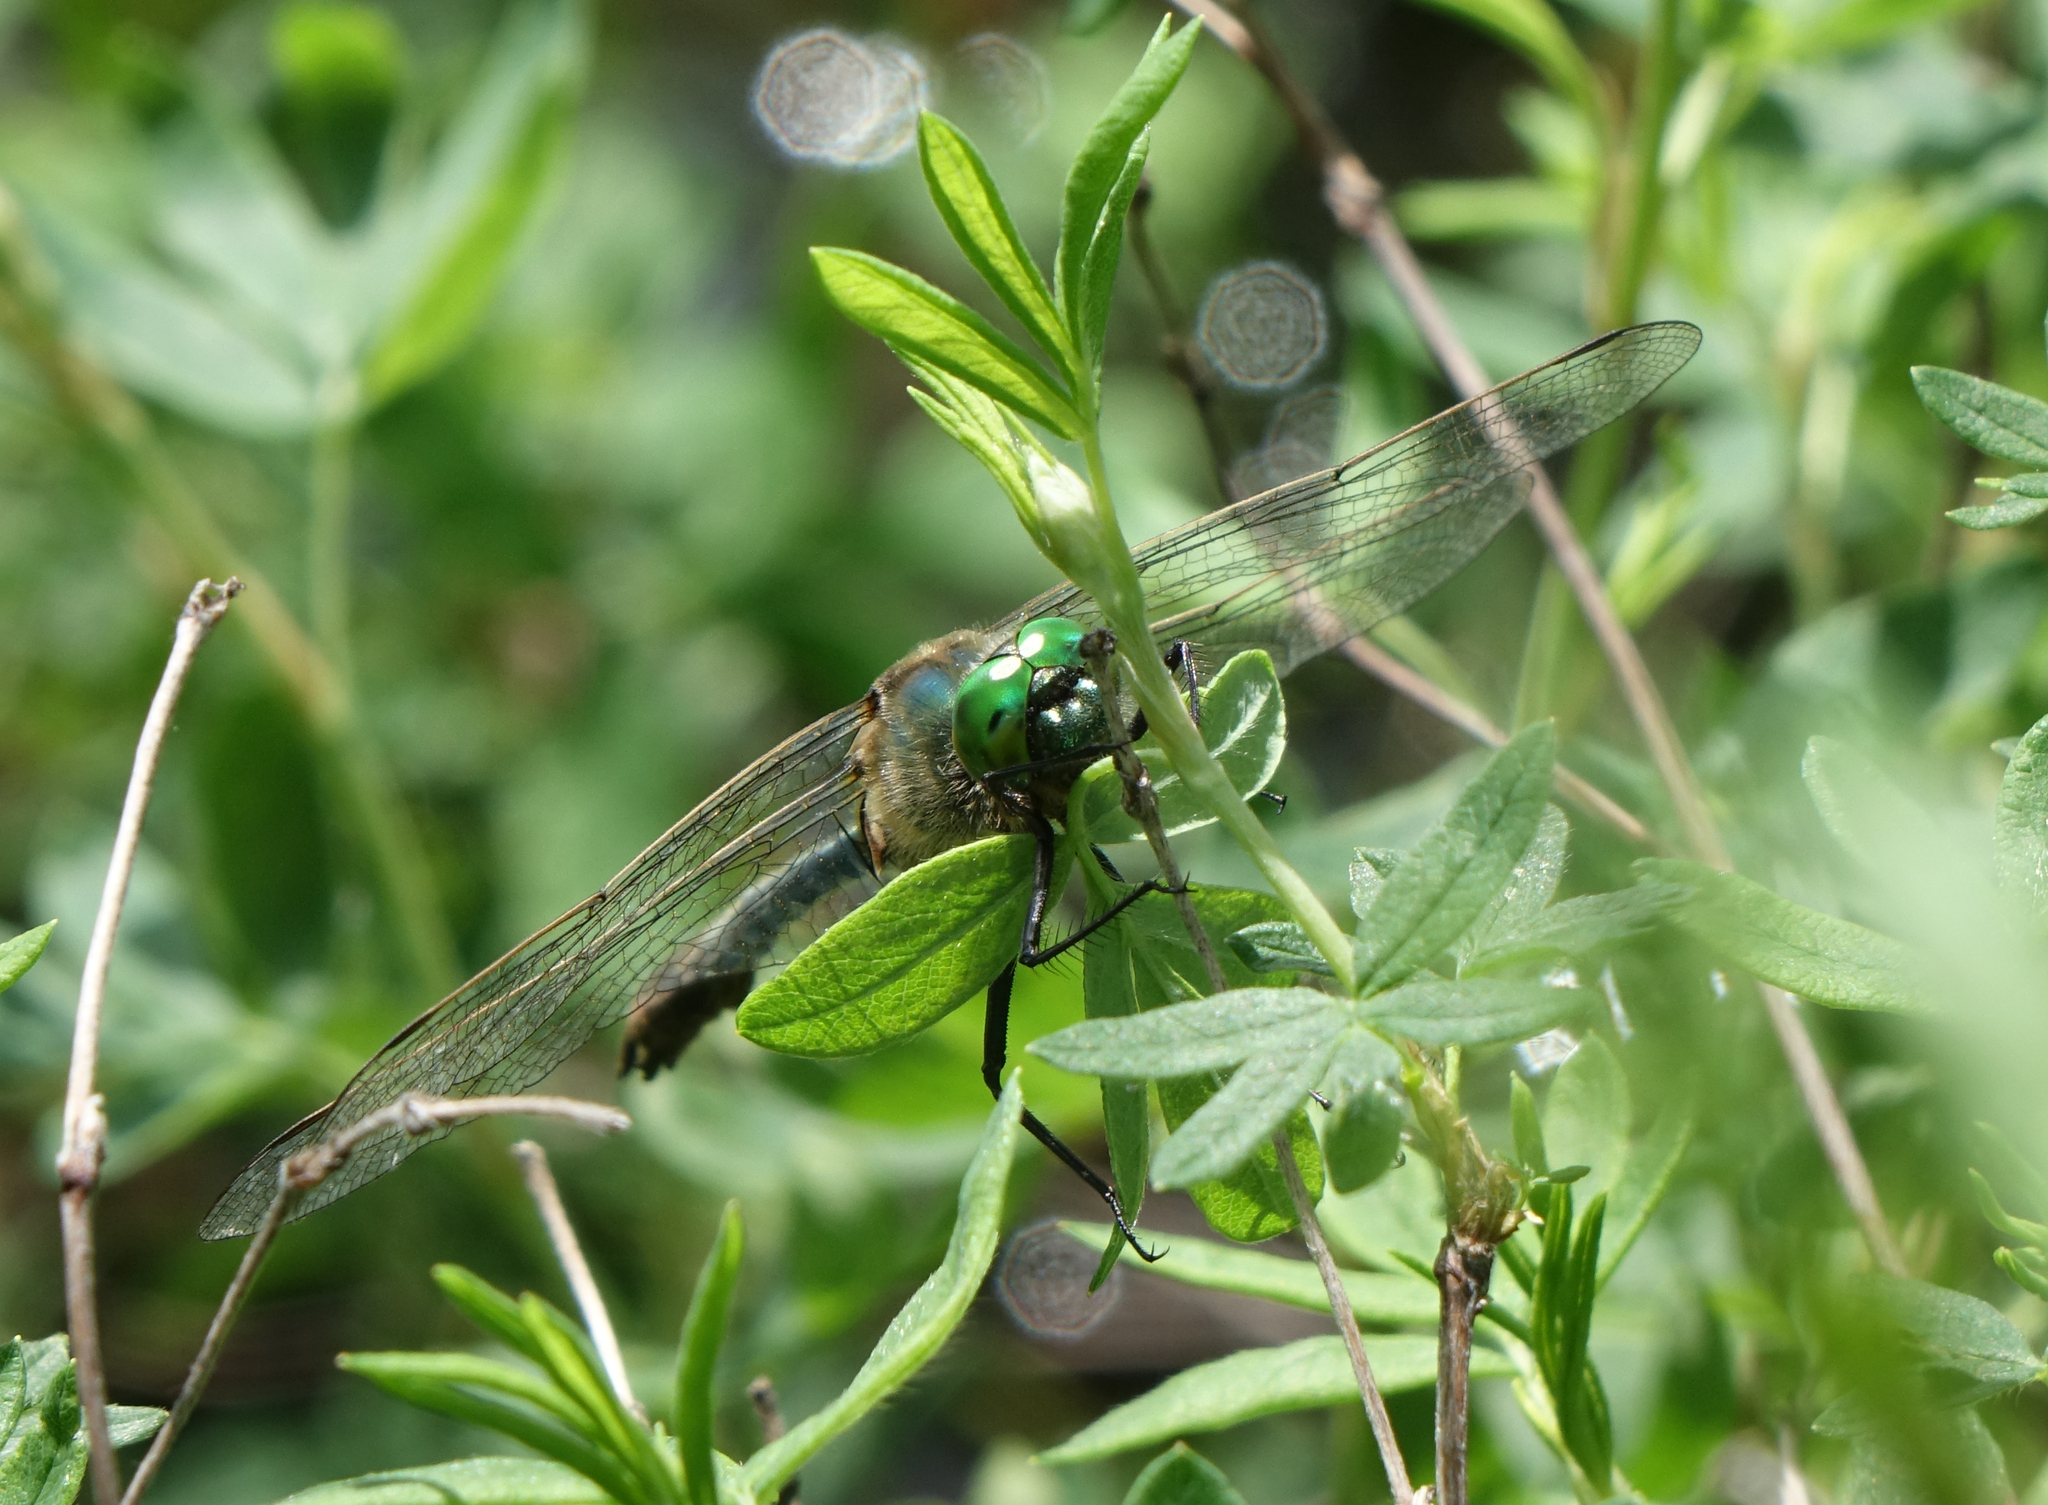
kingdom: Animalia
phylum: Arthropoda
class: Insecta
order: Odonata
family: Corduliidae
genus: Cordulia
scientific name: Cordulia aenea
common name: Downy emerald
